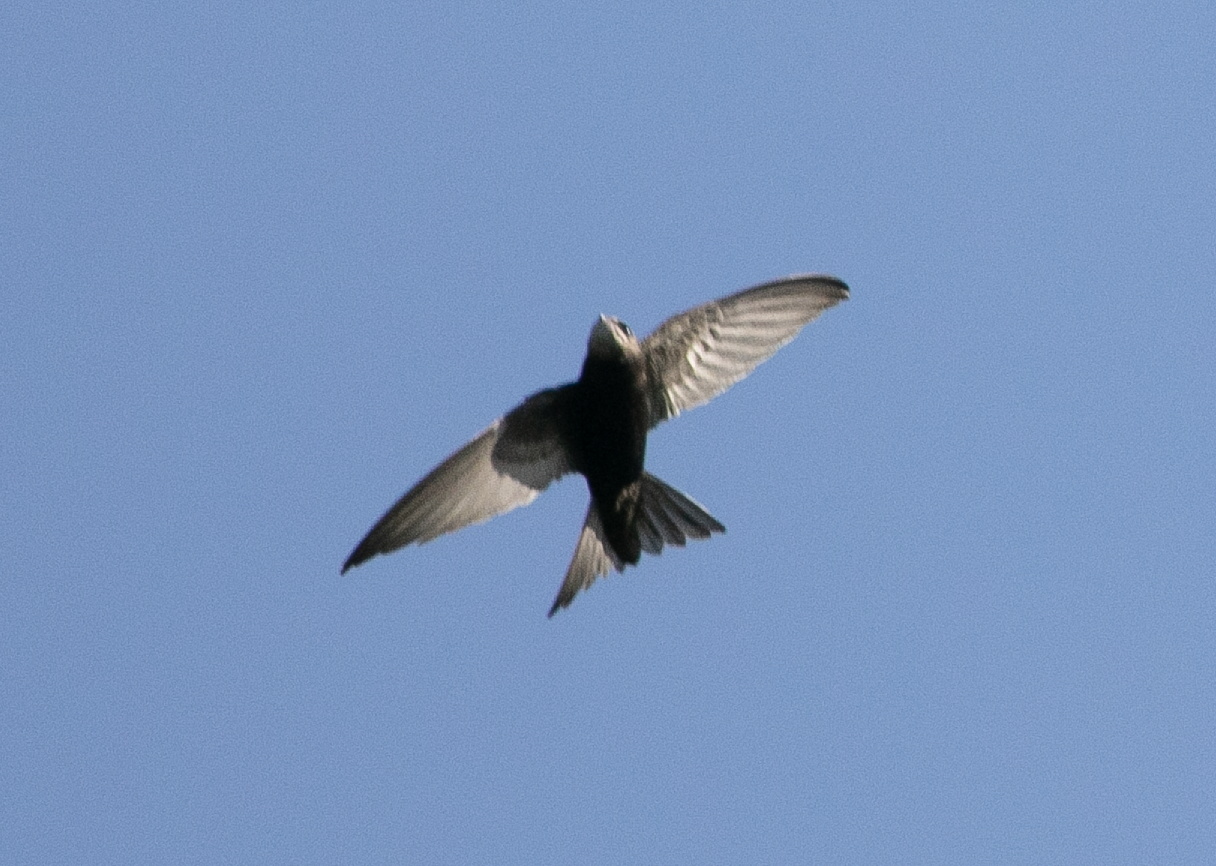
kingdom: Animalia
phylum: Chordata
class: Aves
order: Apodiformes
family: Apodidae
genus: Apus
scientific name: Apus apus
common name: Common swift
